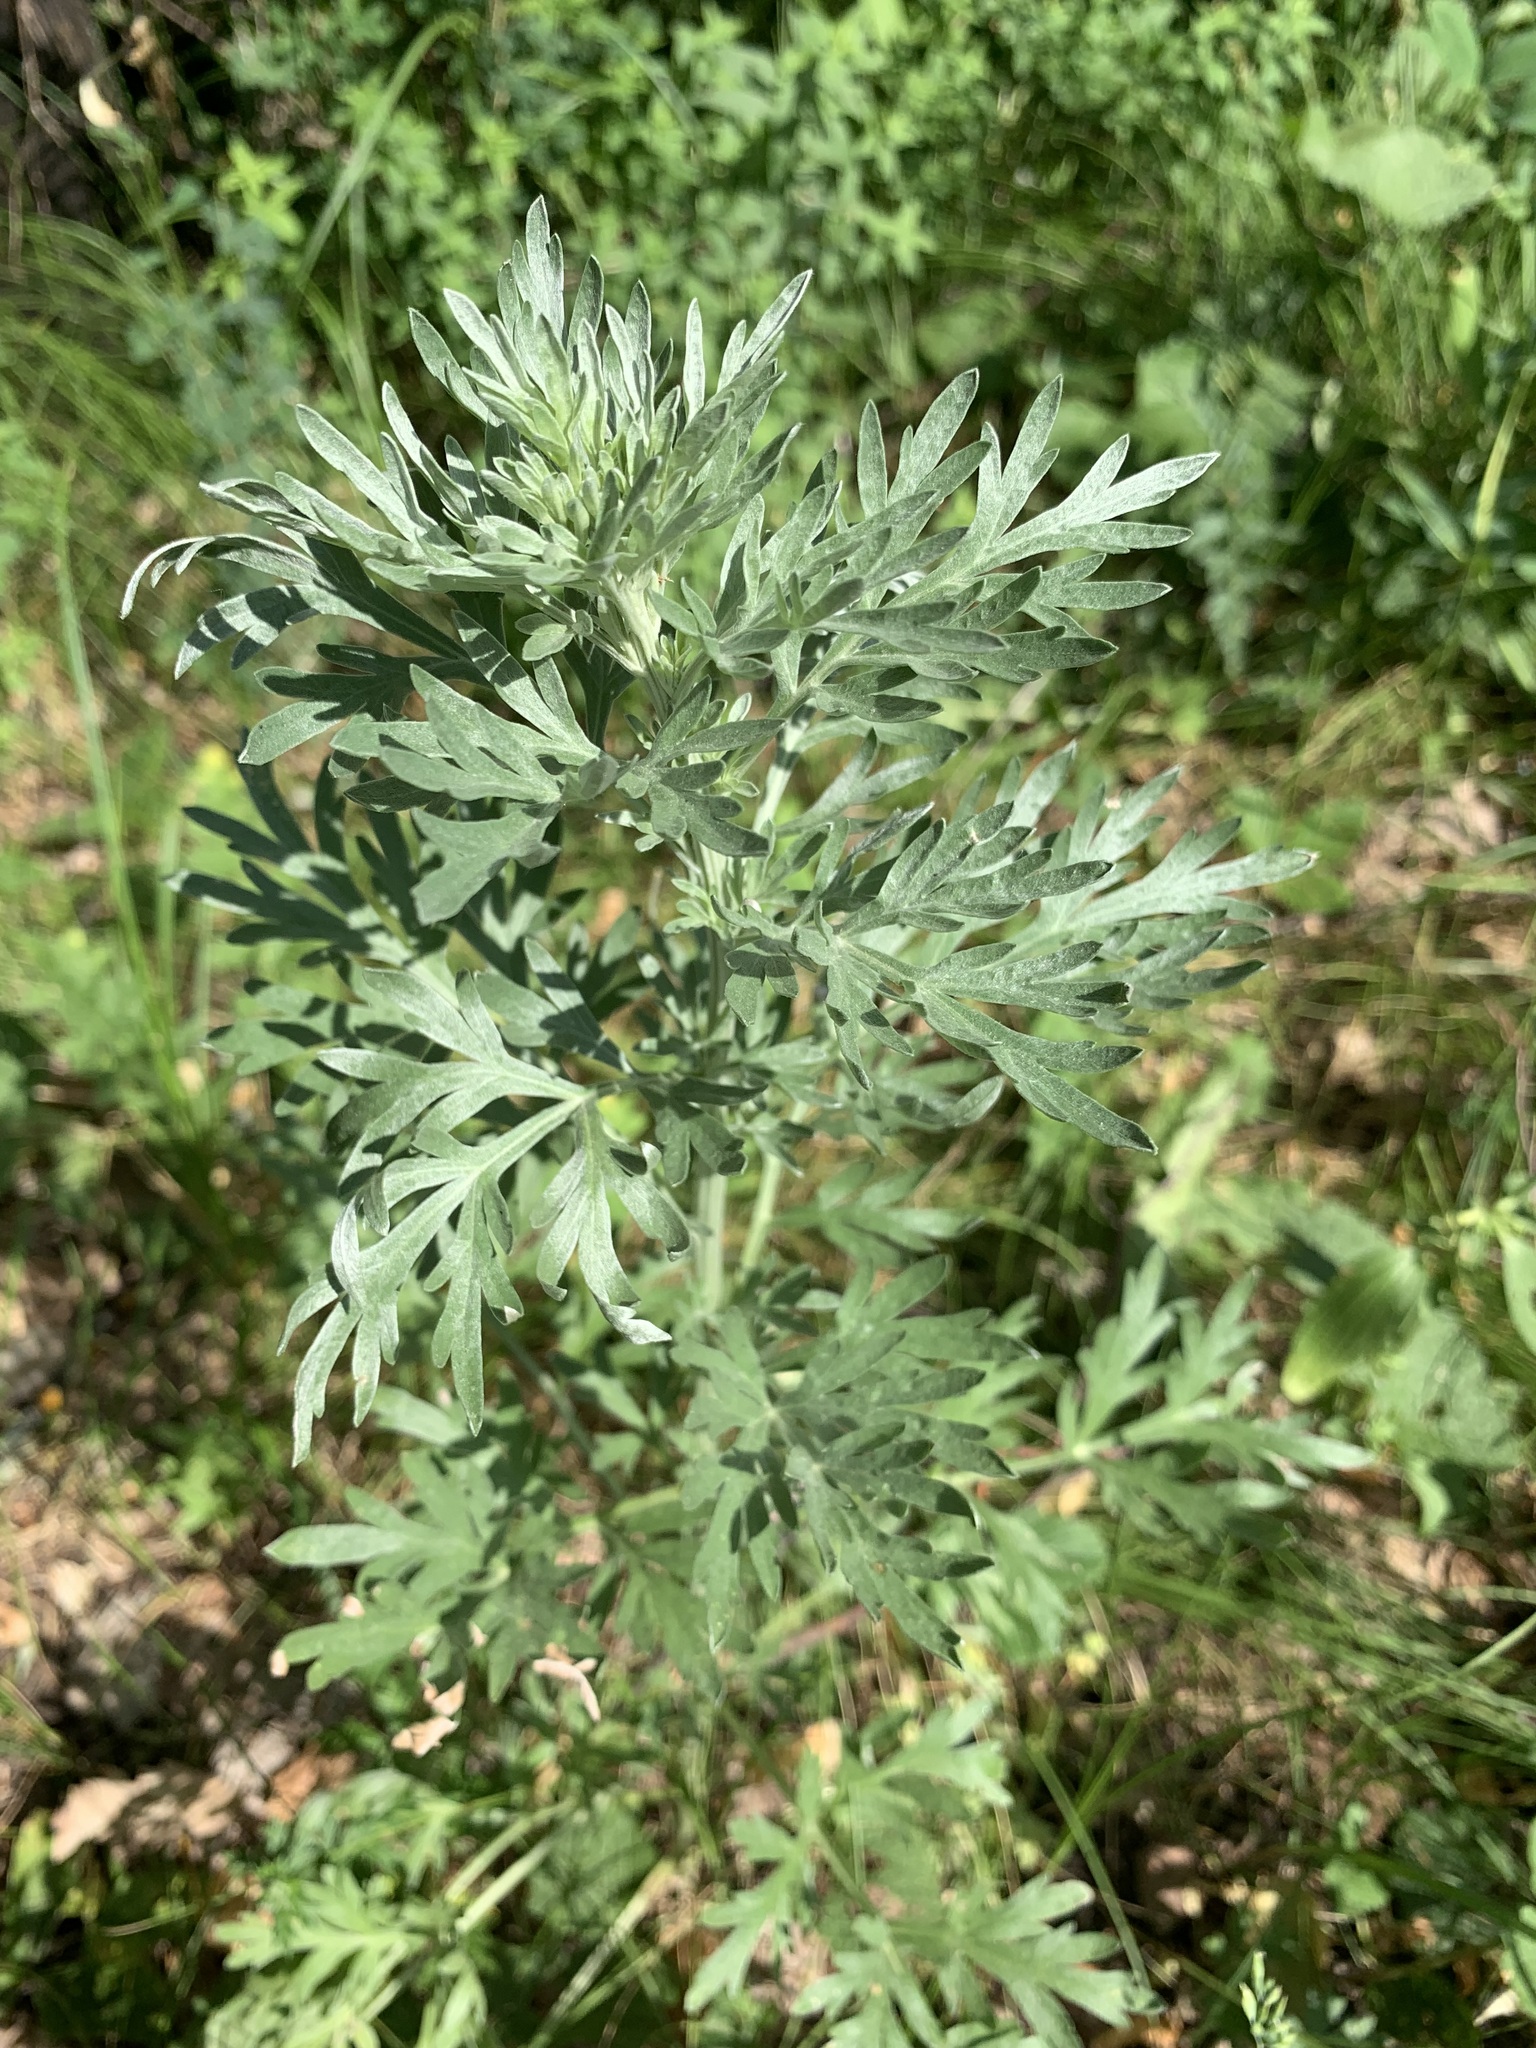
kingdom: Plantae
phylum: Tracheophyta
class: Magnoliopsida
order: Asterales
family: Asteraceae
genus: Artemisia
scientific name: Artemisia absinthium
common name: Wormwood
